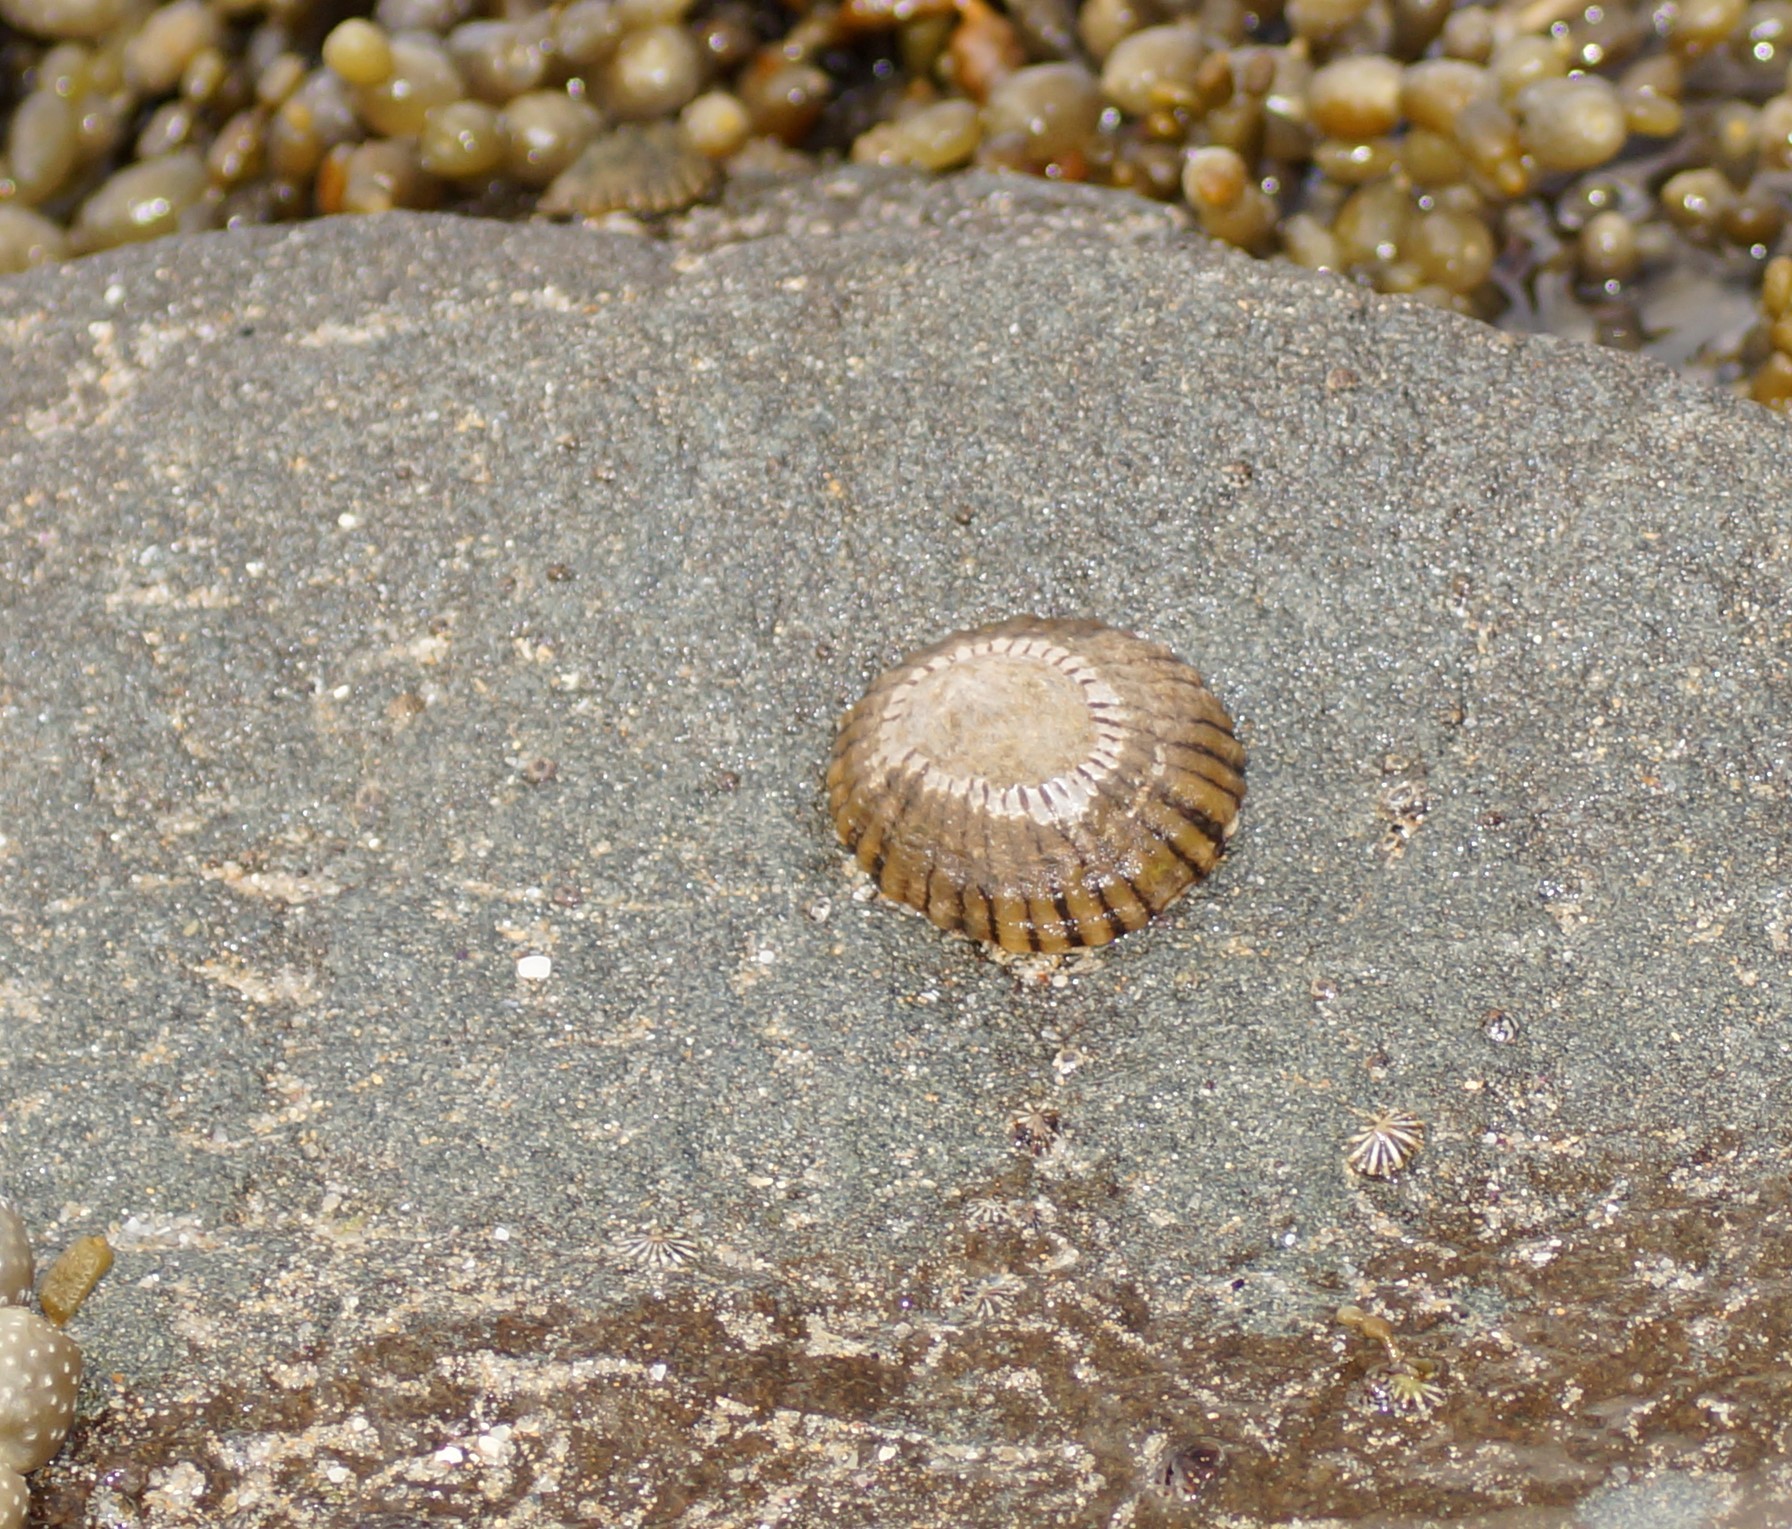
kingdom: Animalia
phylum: Mollusca
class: Gastropoda
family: Nacellidae
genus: Cellana
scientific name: Cellana tramoserica
